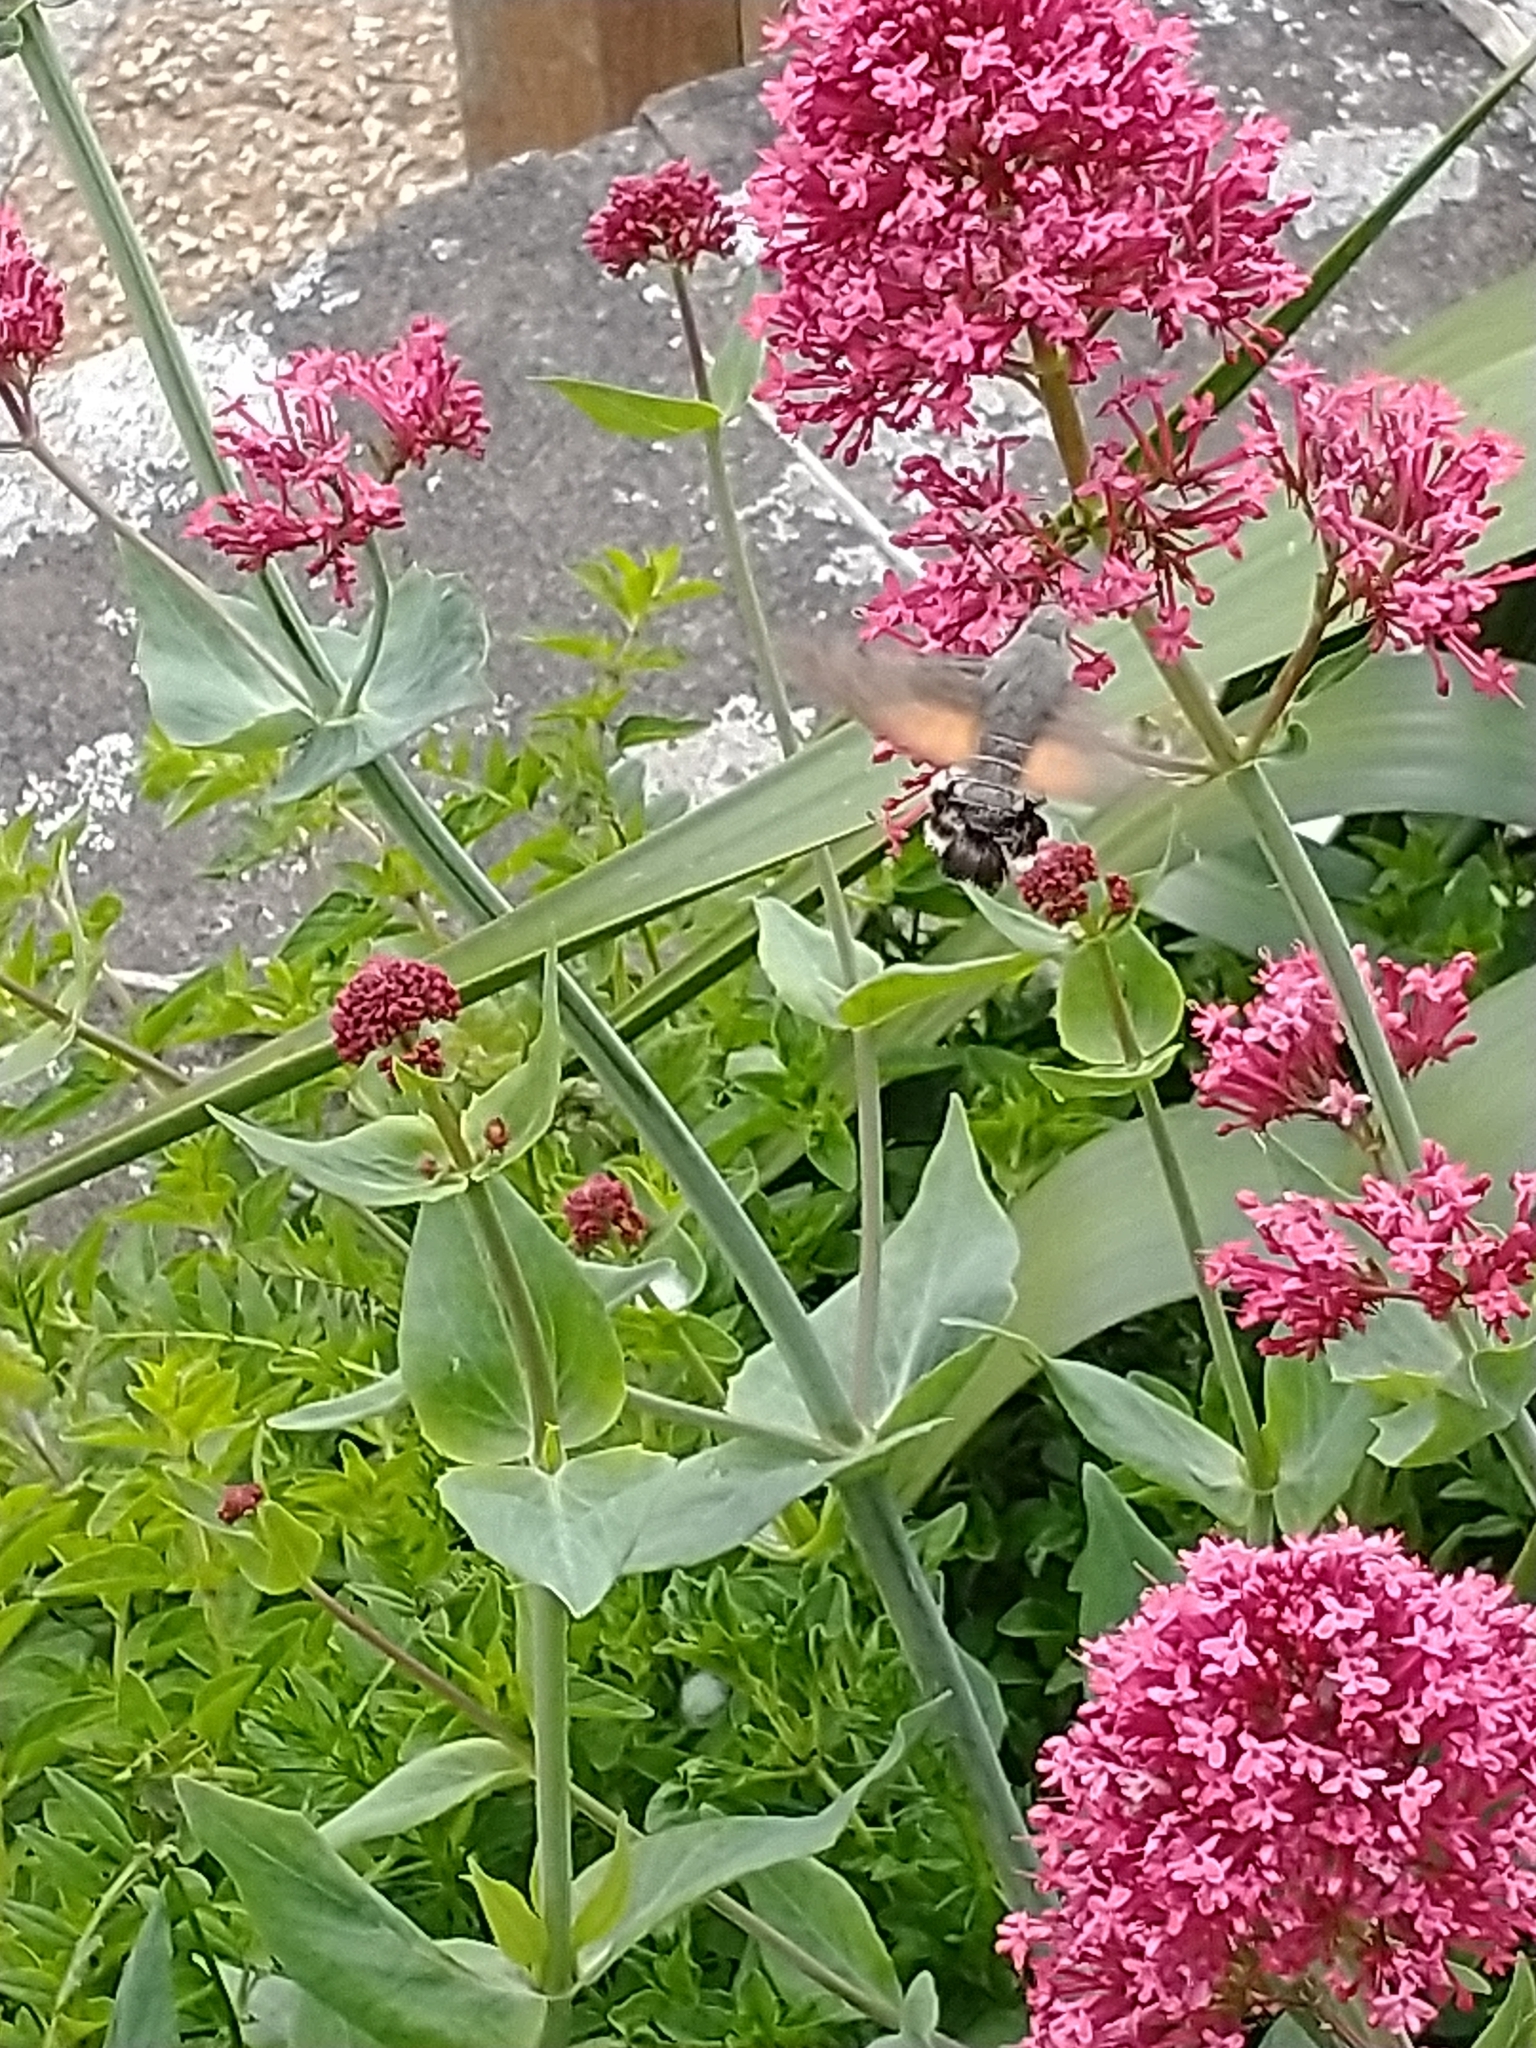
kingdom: Animalia
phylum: Arthropoda
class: Insecta
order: Lepidoptera
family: Sphingidae
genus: Macroglossum
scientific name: Macroglossum stellatarum
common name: Humming-bird hawk-moth
